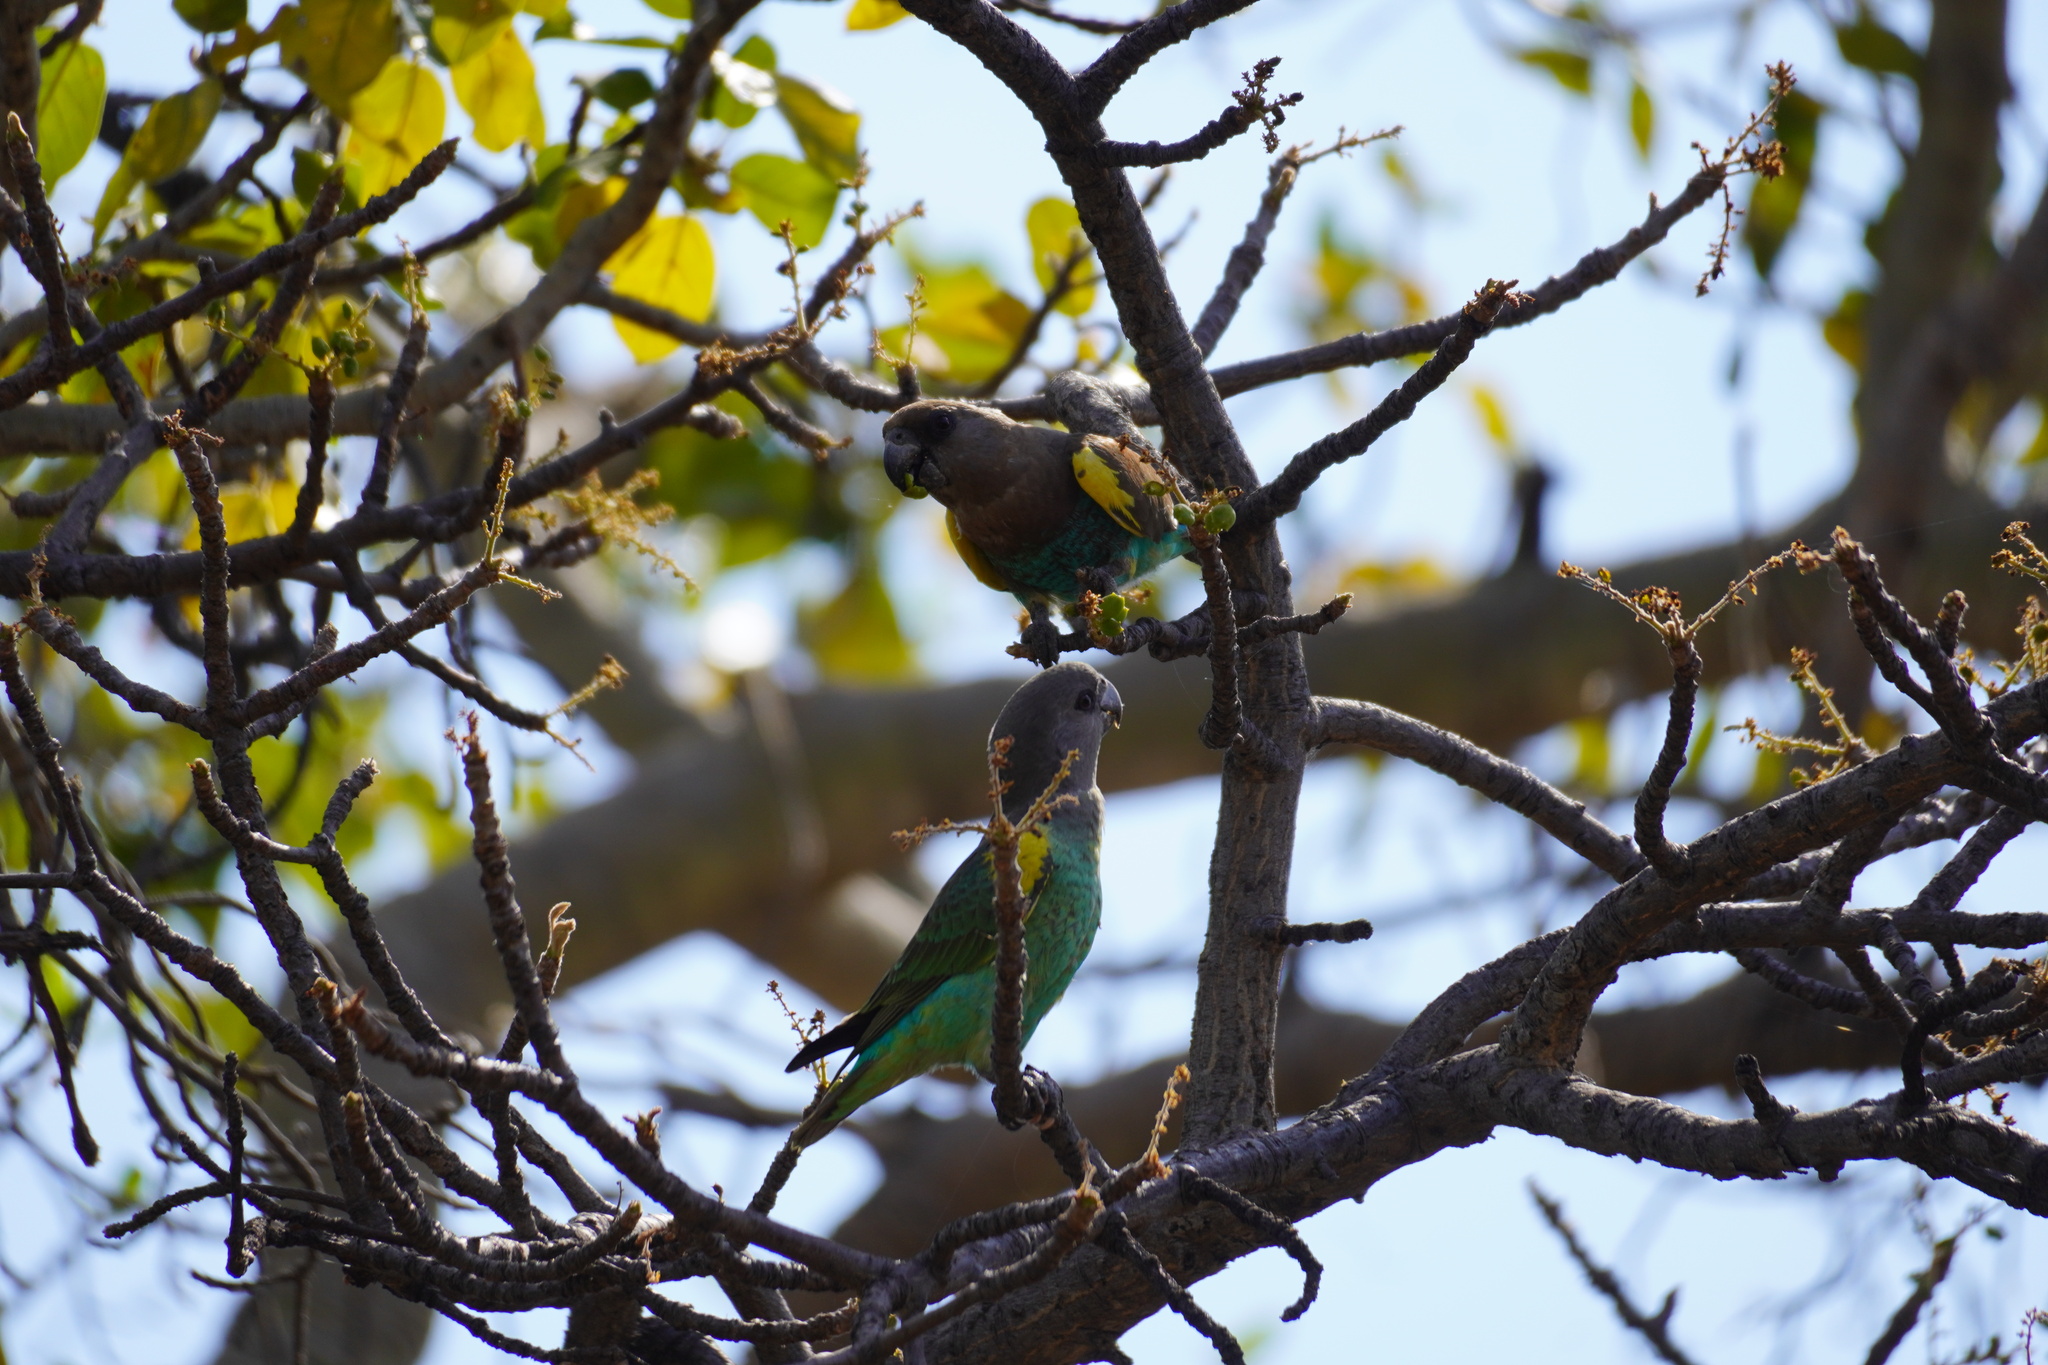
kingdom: Animalia
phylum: Chordata
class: Aves
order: Psittaciformes
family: Psittacidae
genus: Poicephalus
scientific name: Poicephalus meyeri
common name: Meyer's parrot
